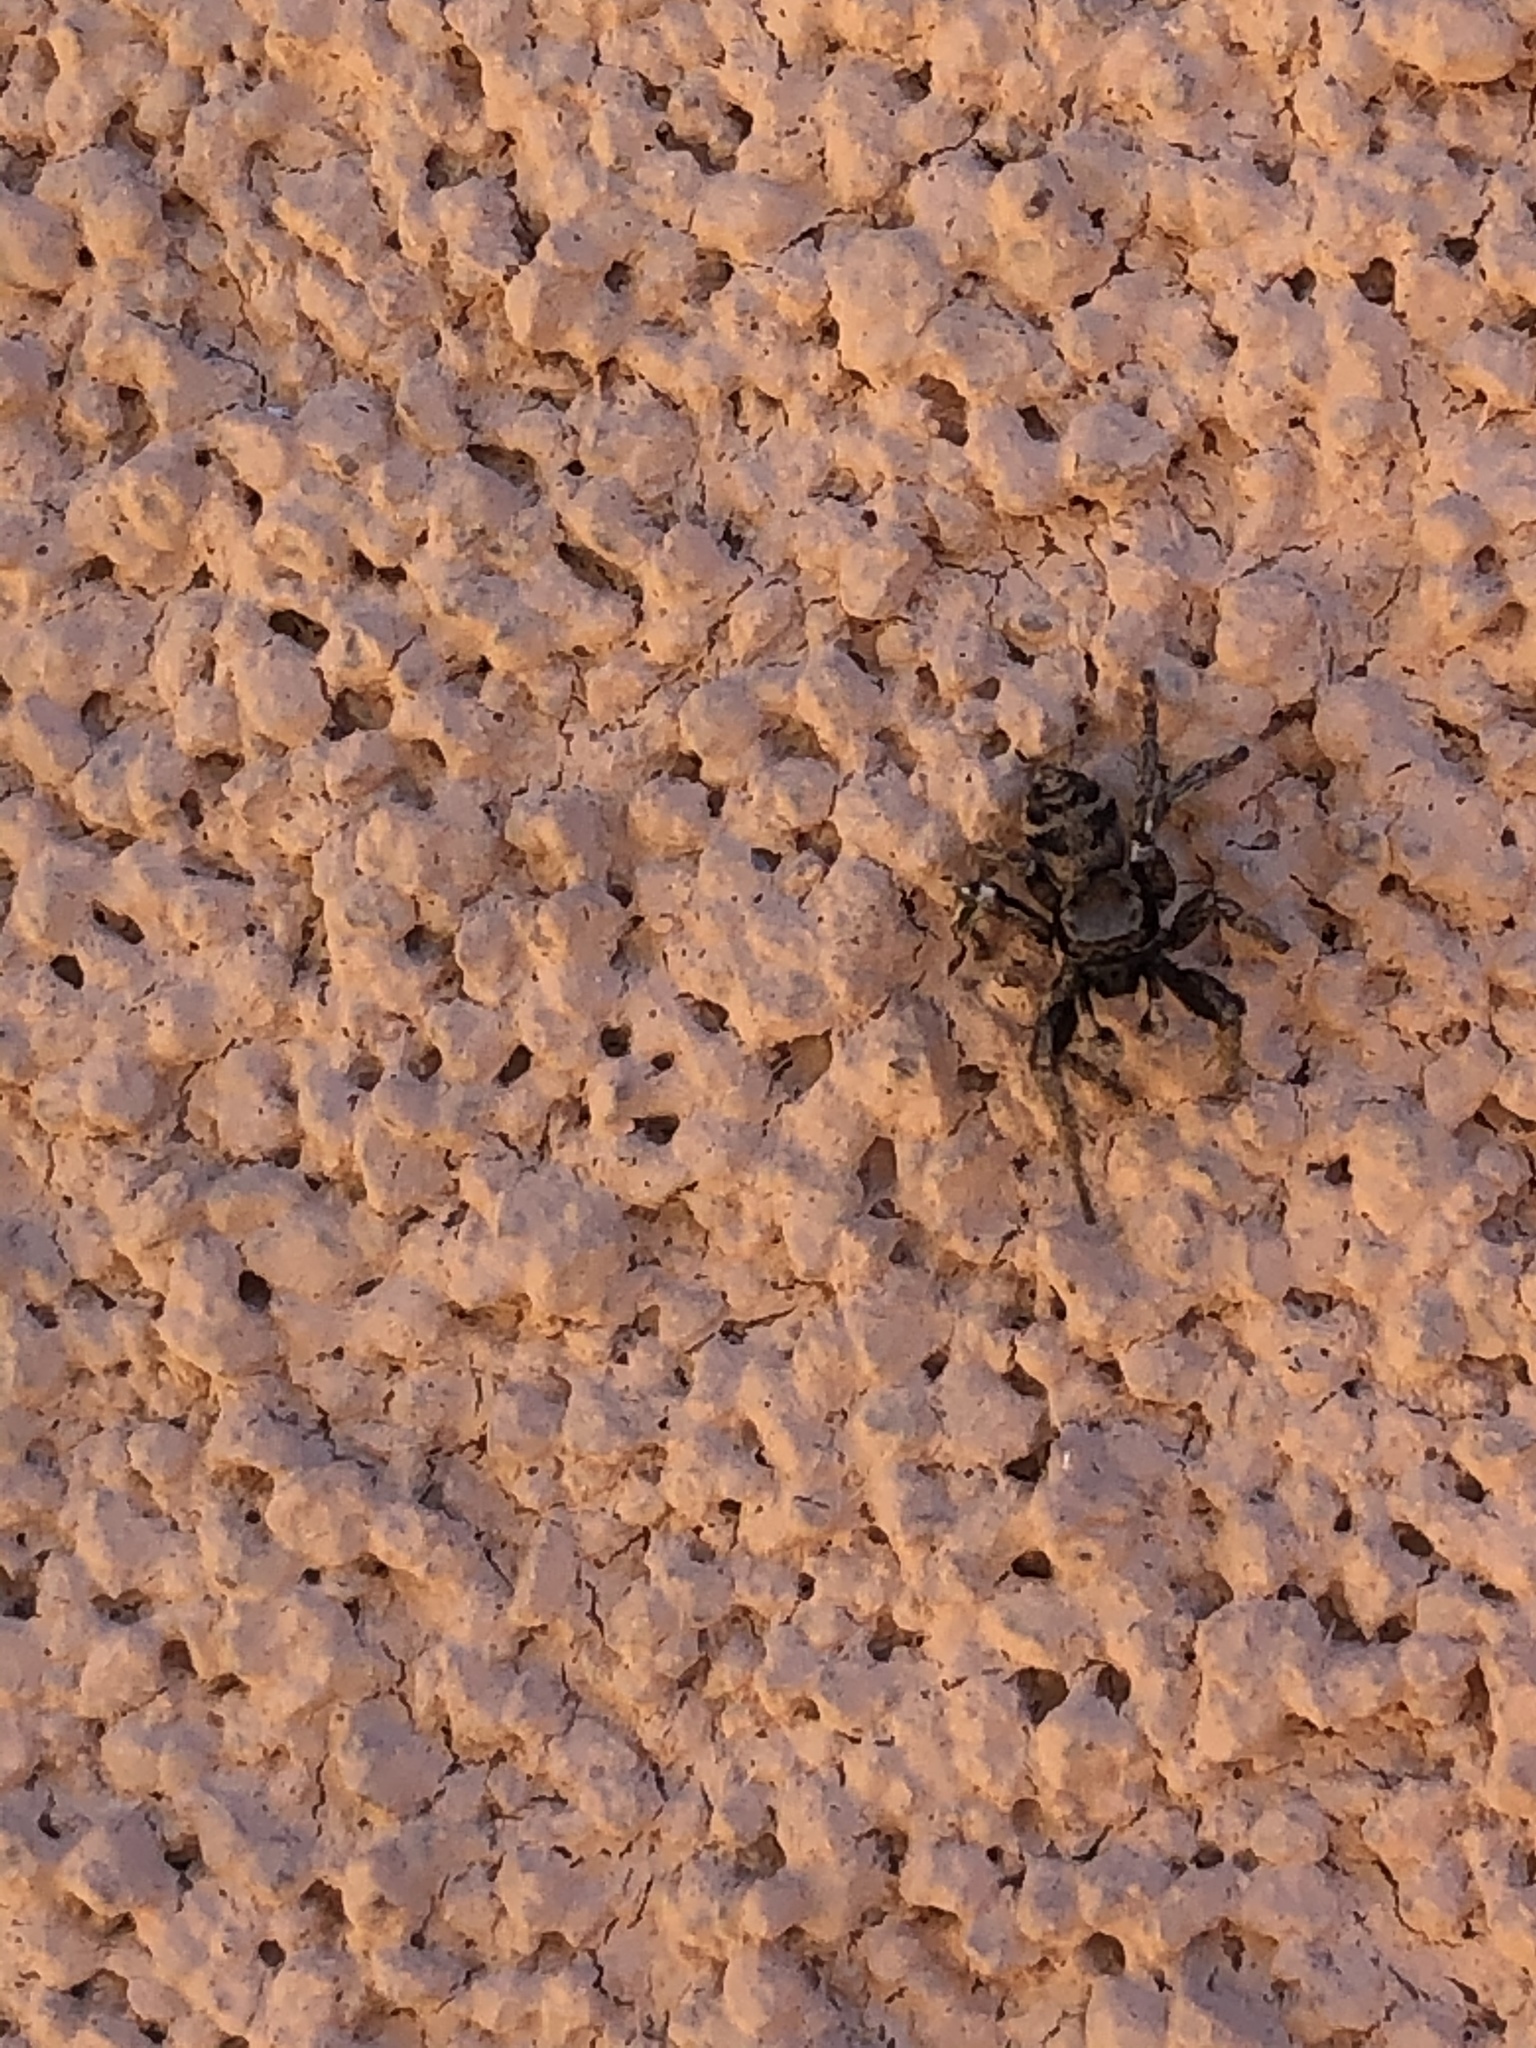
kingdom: Animalia
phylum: Arthropoda
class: Arachnida
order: Araneae
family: Salticidae
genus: Habronattus
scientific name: Habronattus festus
